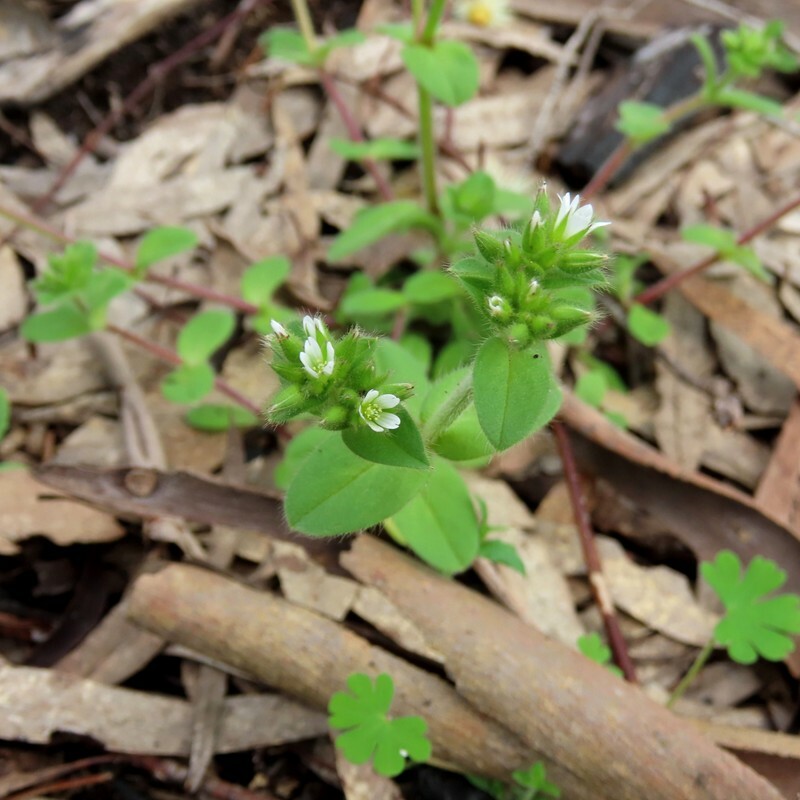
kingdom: Plantae
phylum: Tracheophyta
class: Magnoliopsida
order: Caryophyllales
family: Caryophyllaceae
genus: Cerastium
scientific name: Cerastium glomeratum
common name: Sticky chickweed
